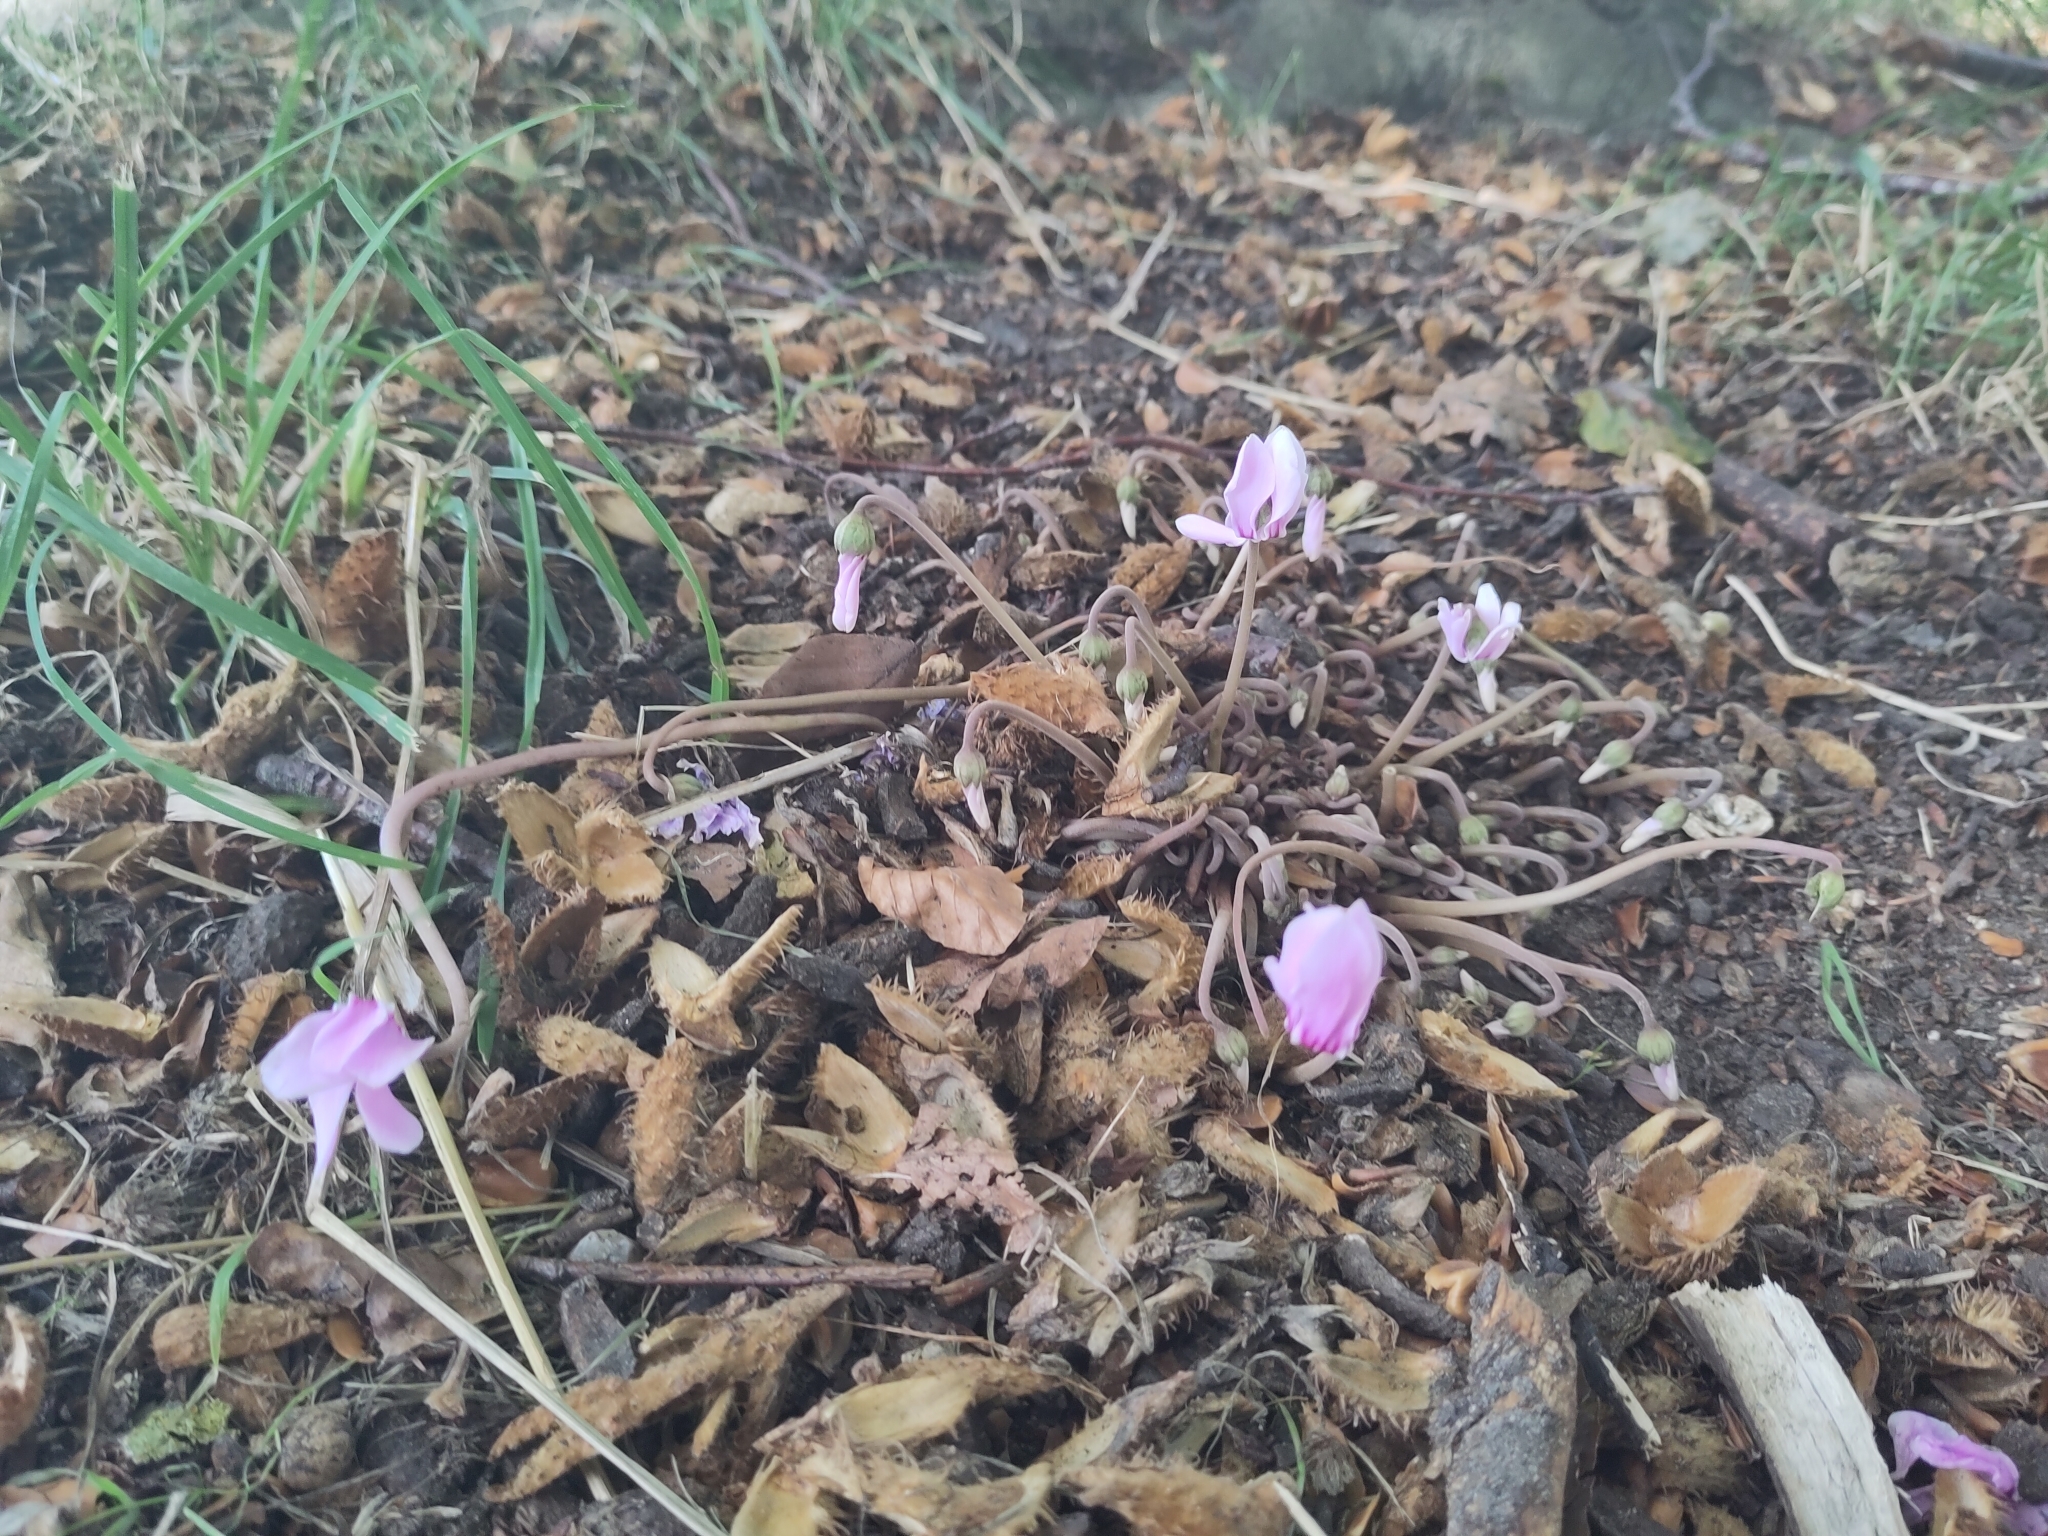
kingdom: Plantae
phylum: Tracheophyta
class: Magnoliopsida
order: Ericales
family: Primulaceae
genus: Cyclamen
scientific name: Cyclamen hederifolium
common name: Sowbread
